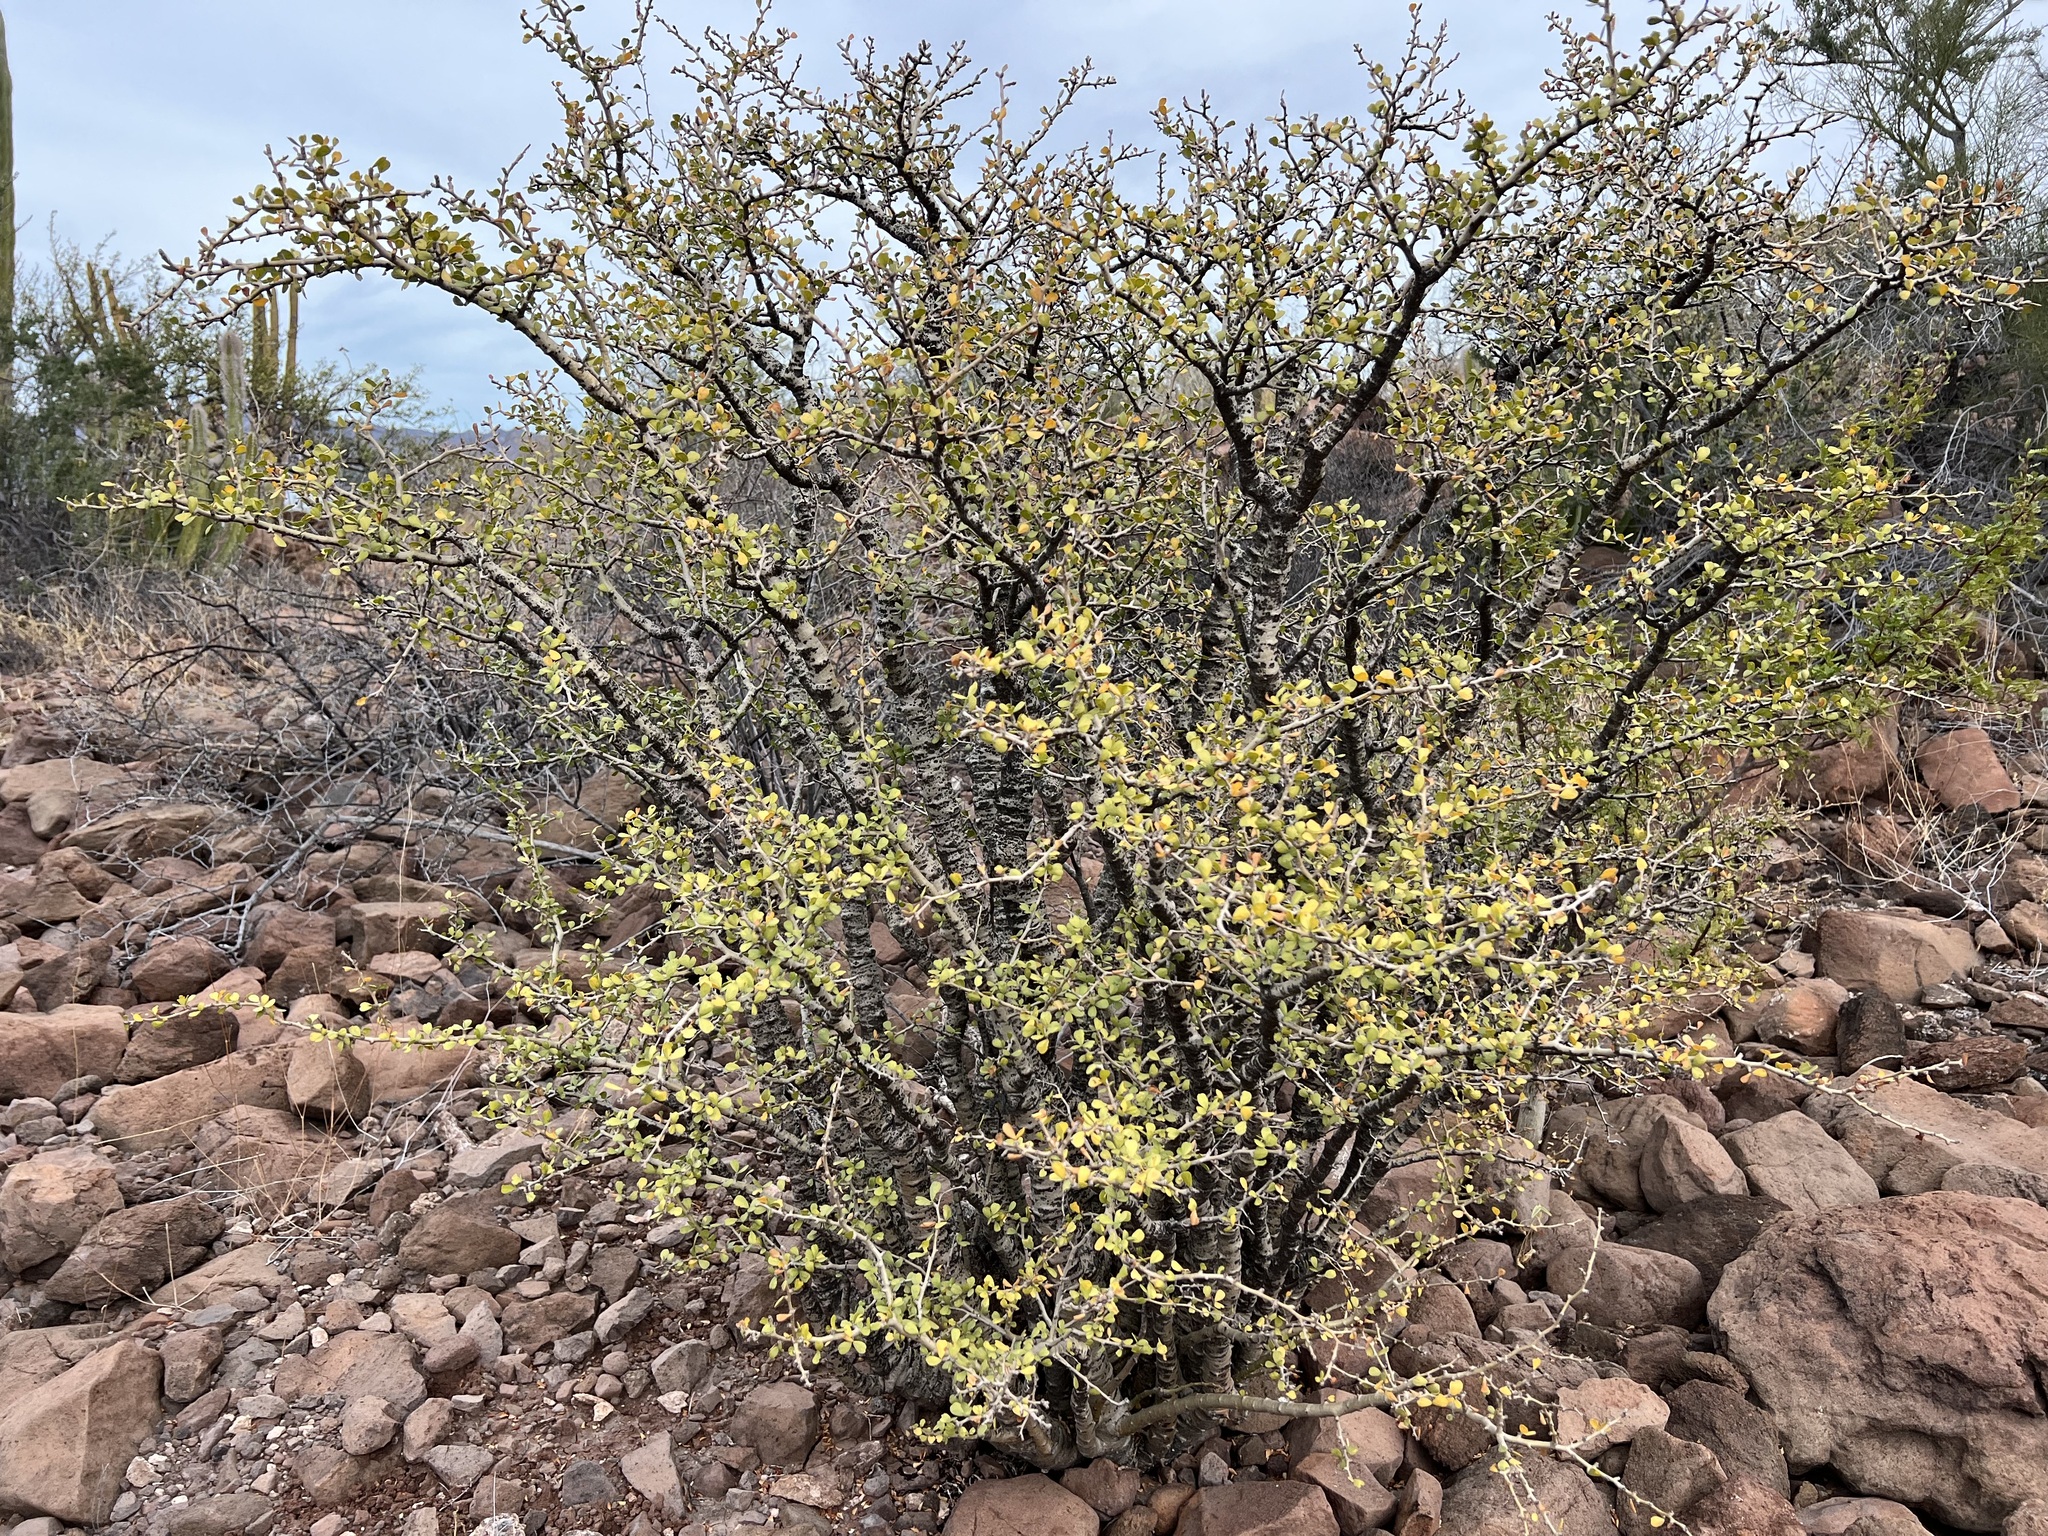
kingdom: Plantae
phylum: Tracheophyta
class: Magnoliopsida
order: Malpighiales
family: Euphorbiaceae
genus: Jatropha
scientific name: Jatropha cuneata
